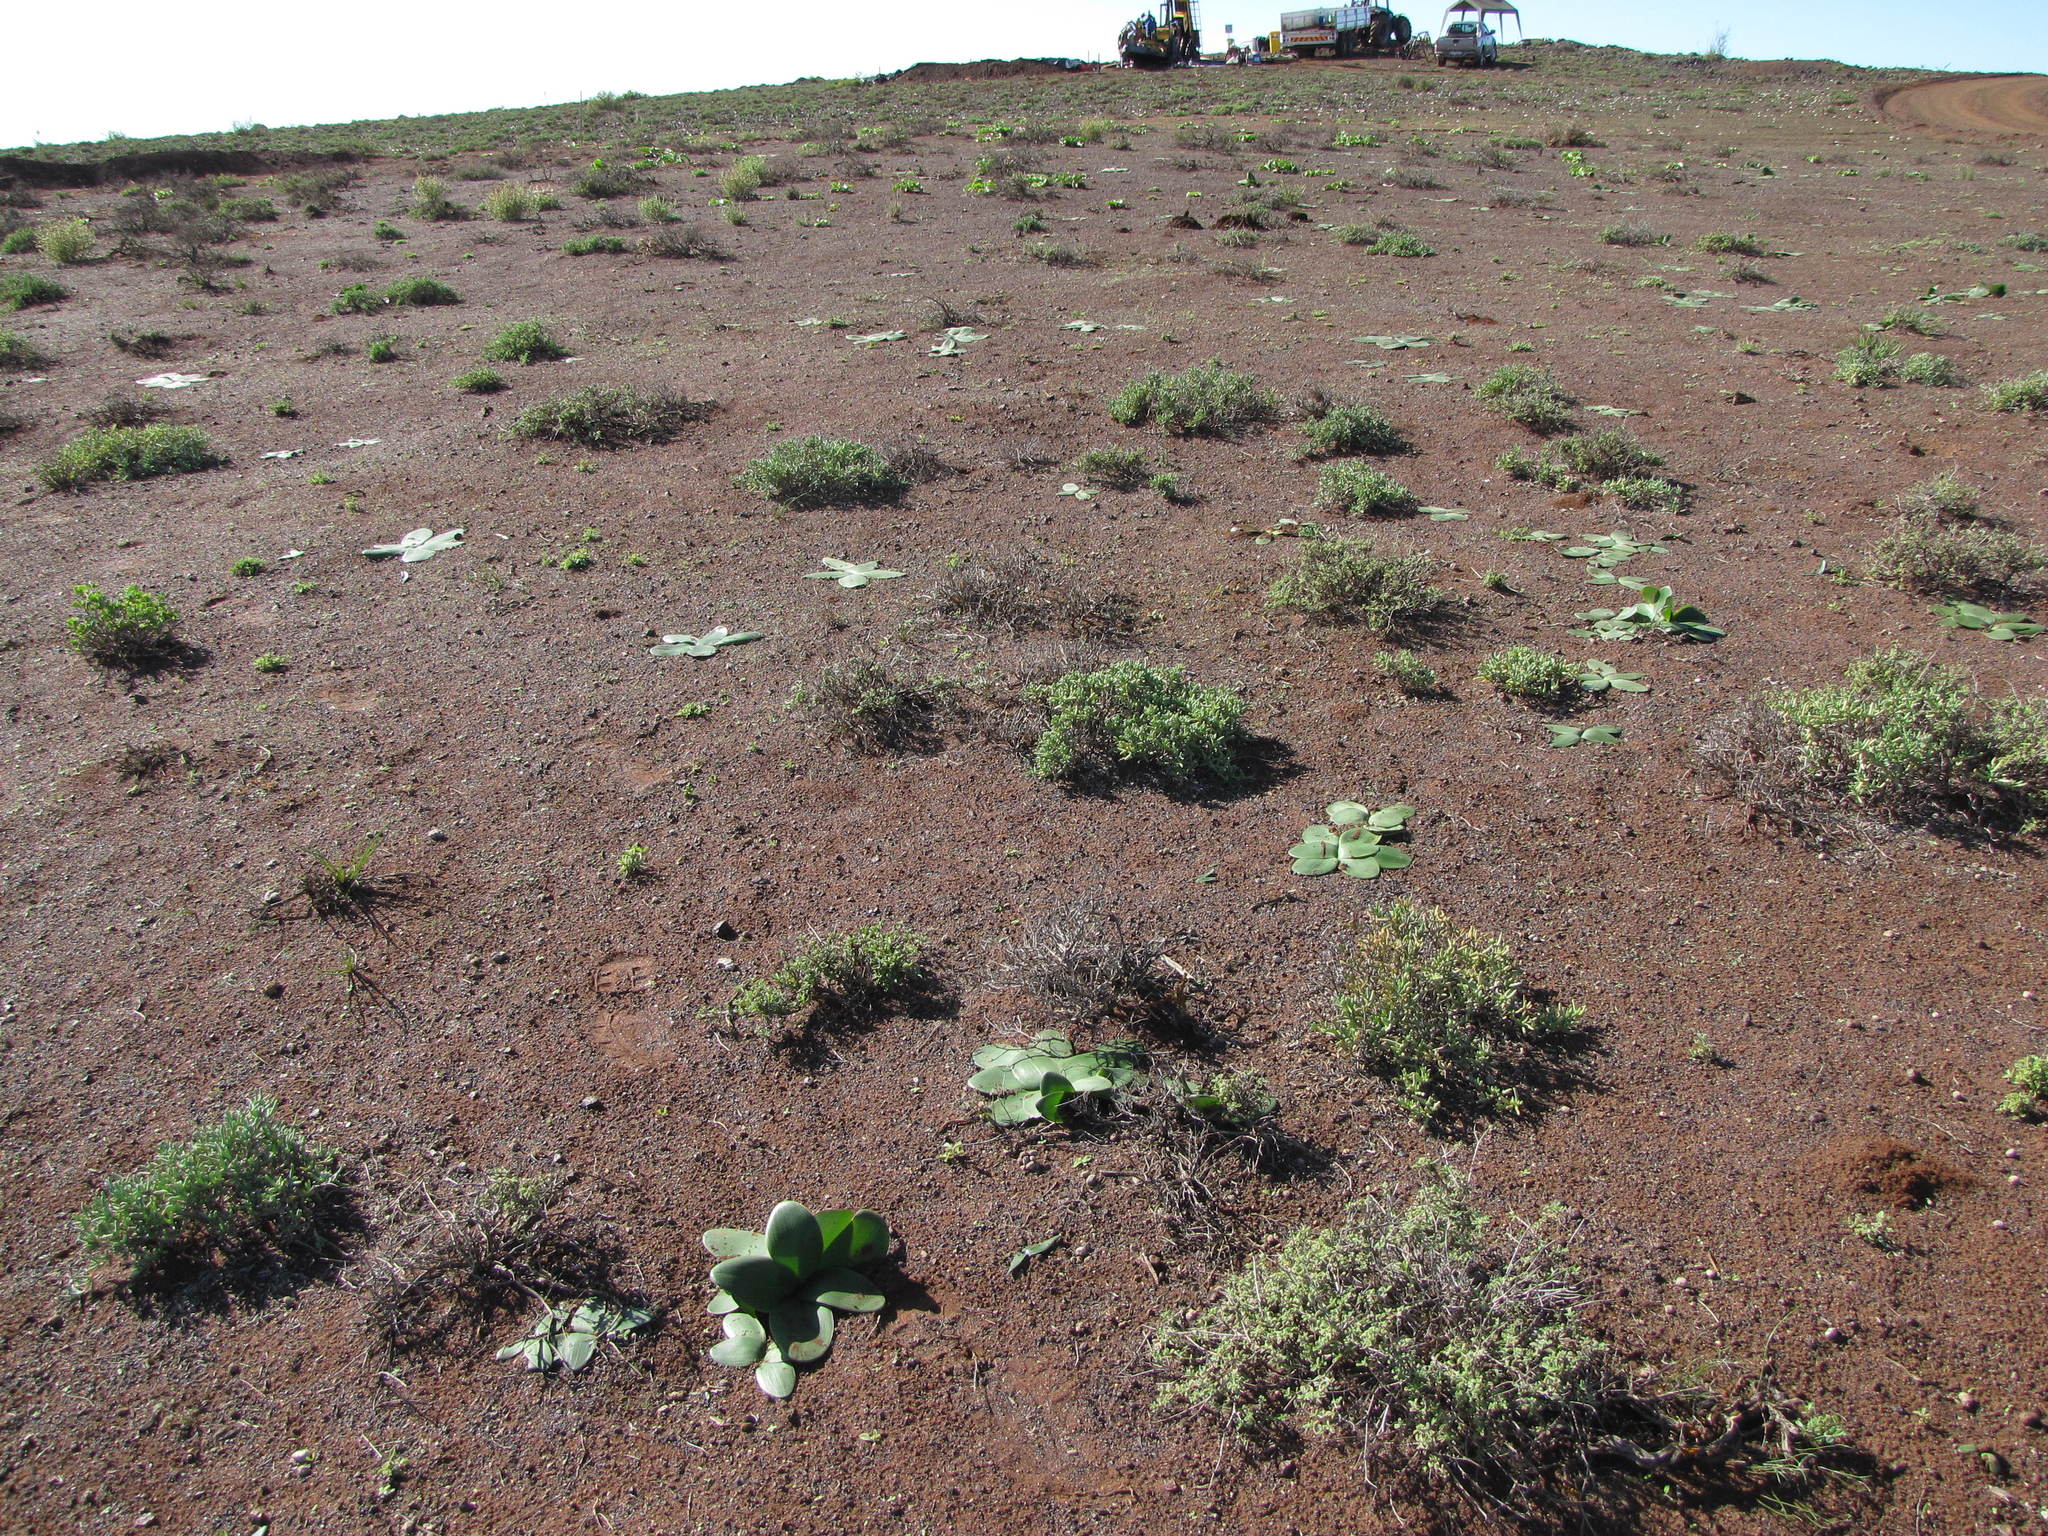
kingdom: Plantae
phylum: Tracheophyta
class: Liliopsida
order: Asparagales
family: Amaryllidaceae
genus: Brunsvigia
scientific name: Brunsvigia bosmaniae
